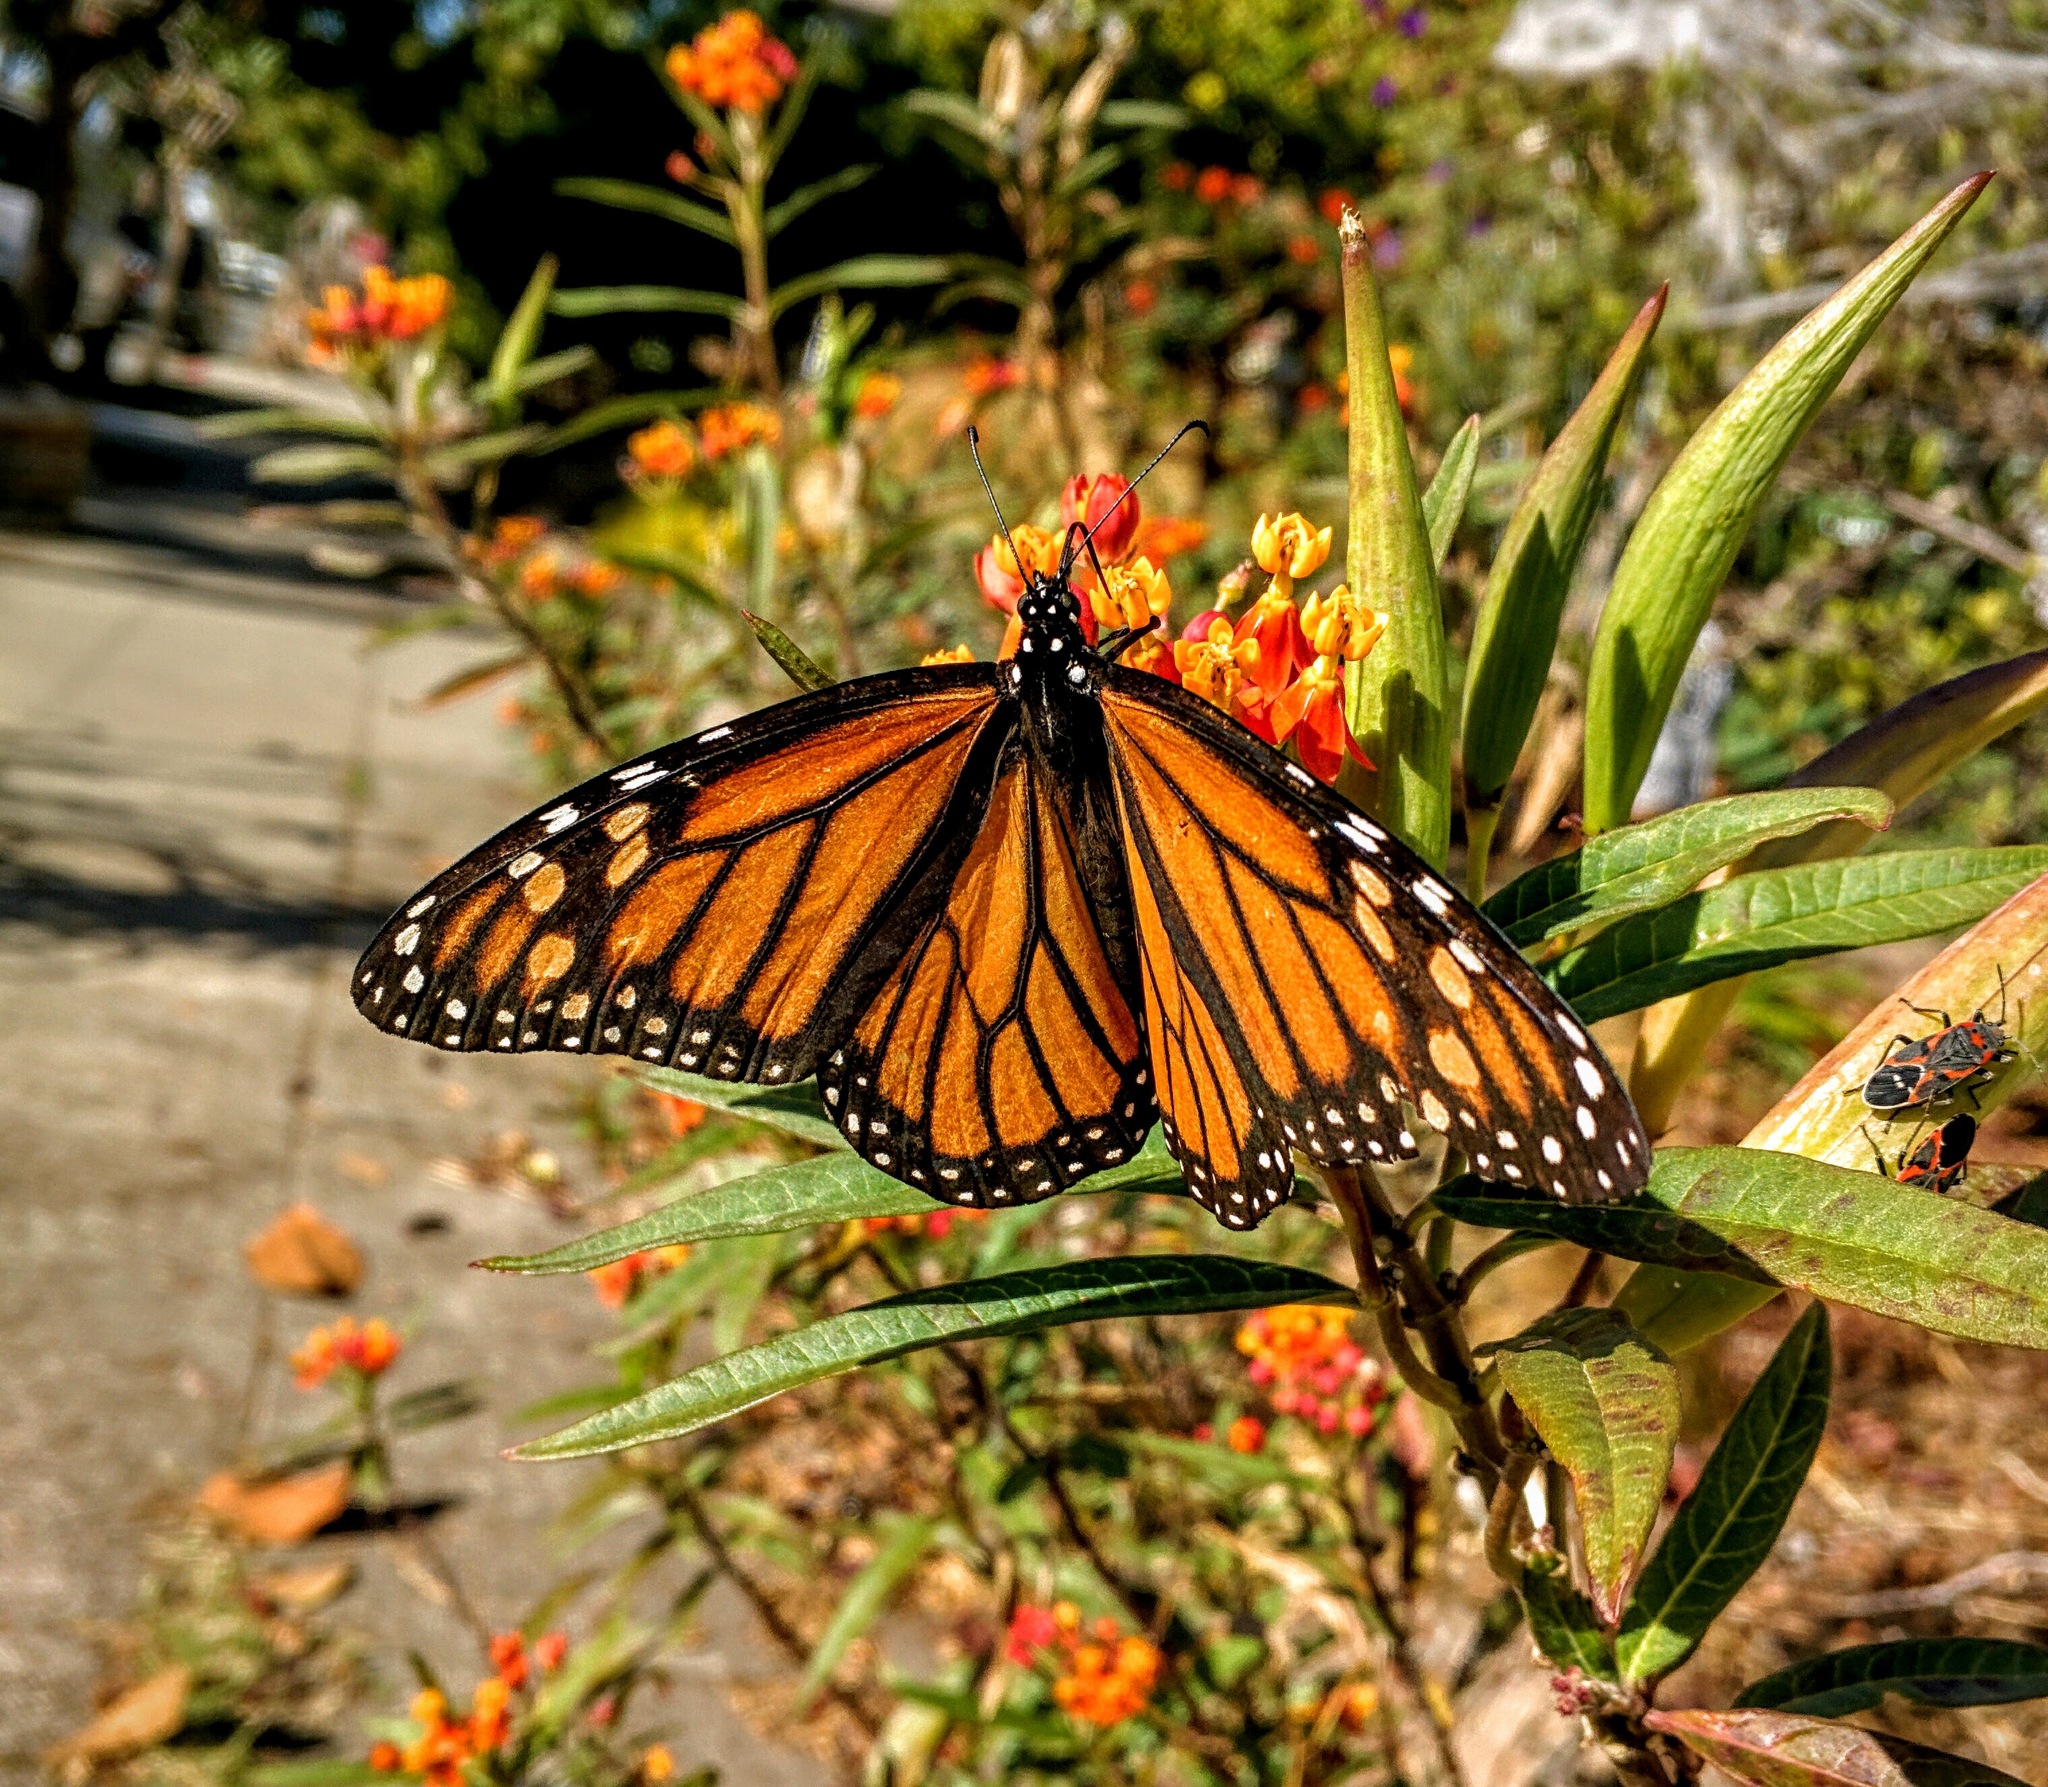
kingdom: Animalia
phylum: Arthropoda
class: Insecta
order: Lepidoptera
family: Nymphalidae
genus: Danaus
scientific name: Danaus plexippus
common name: Monarch
